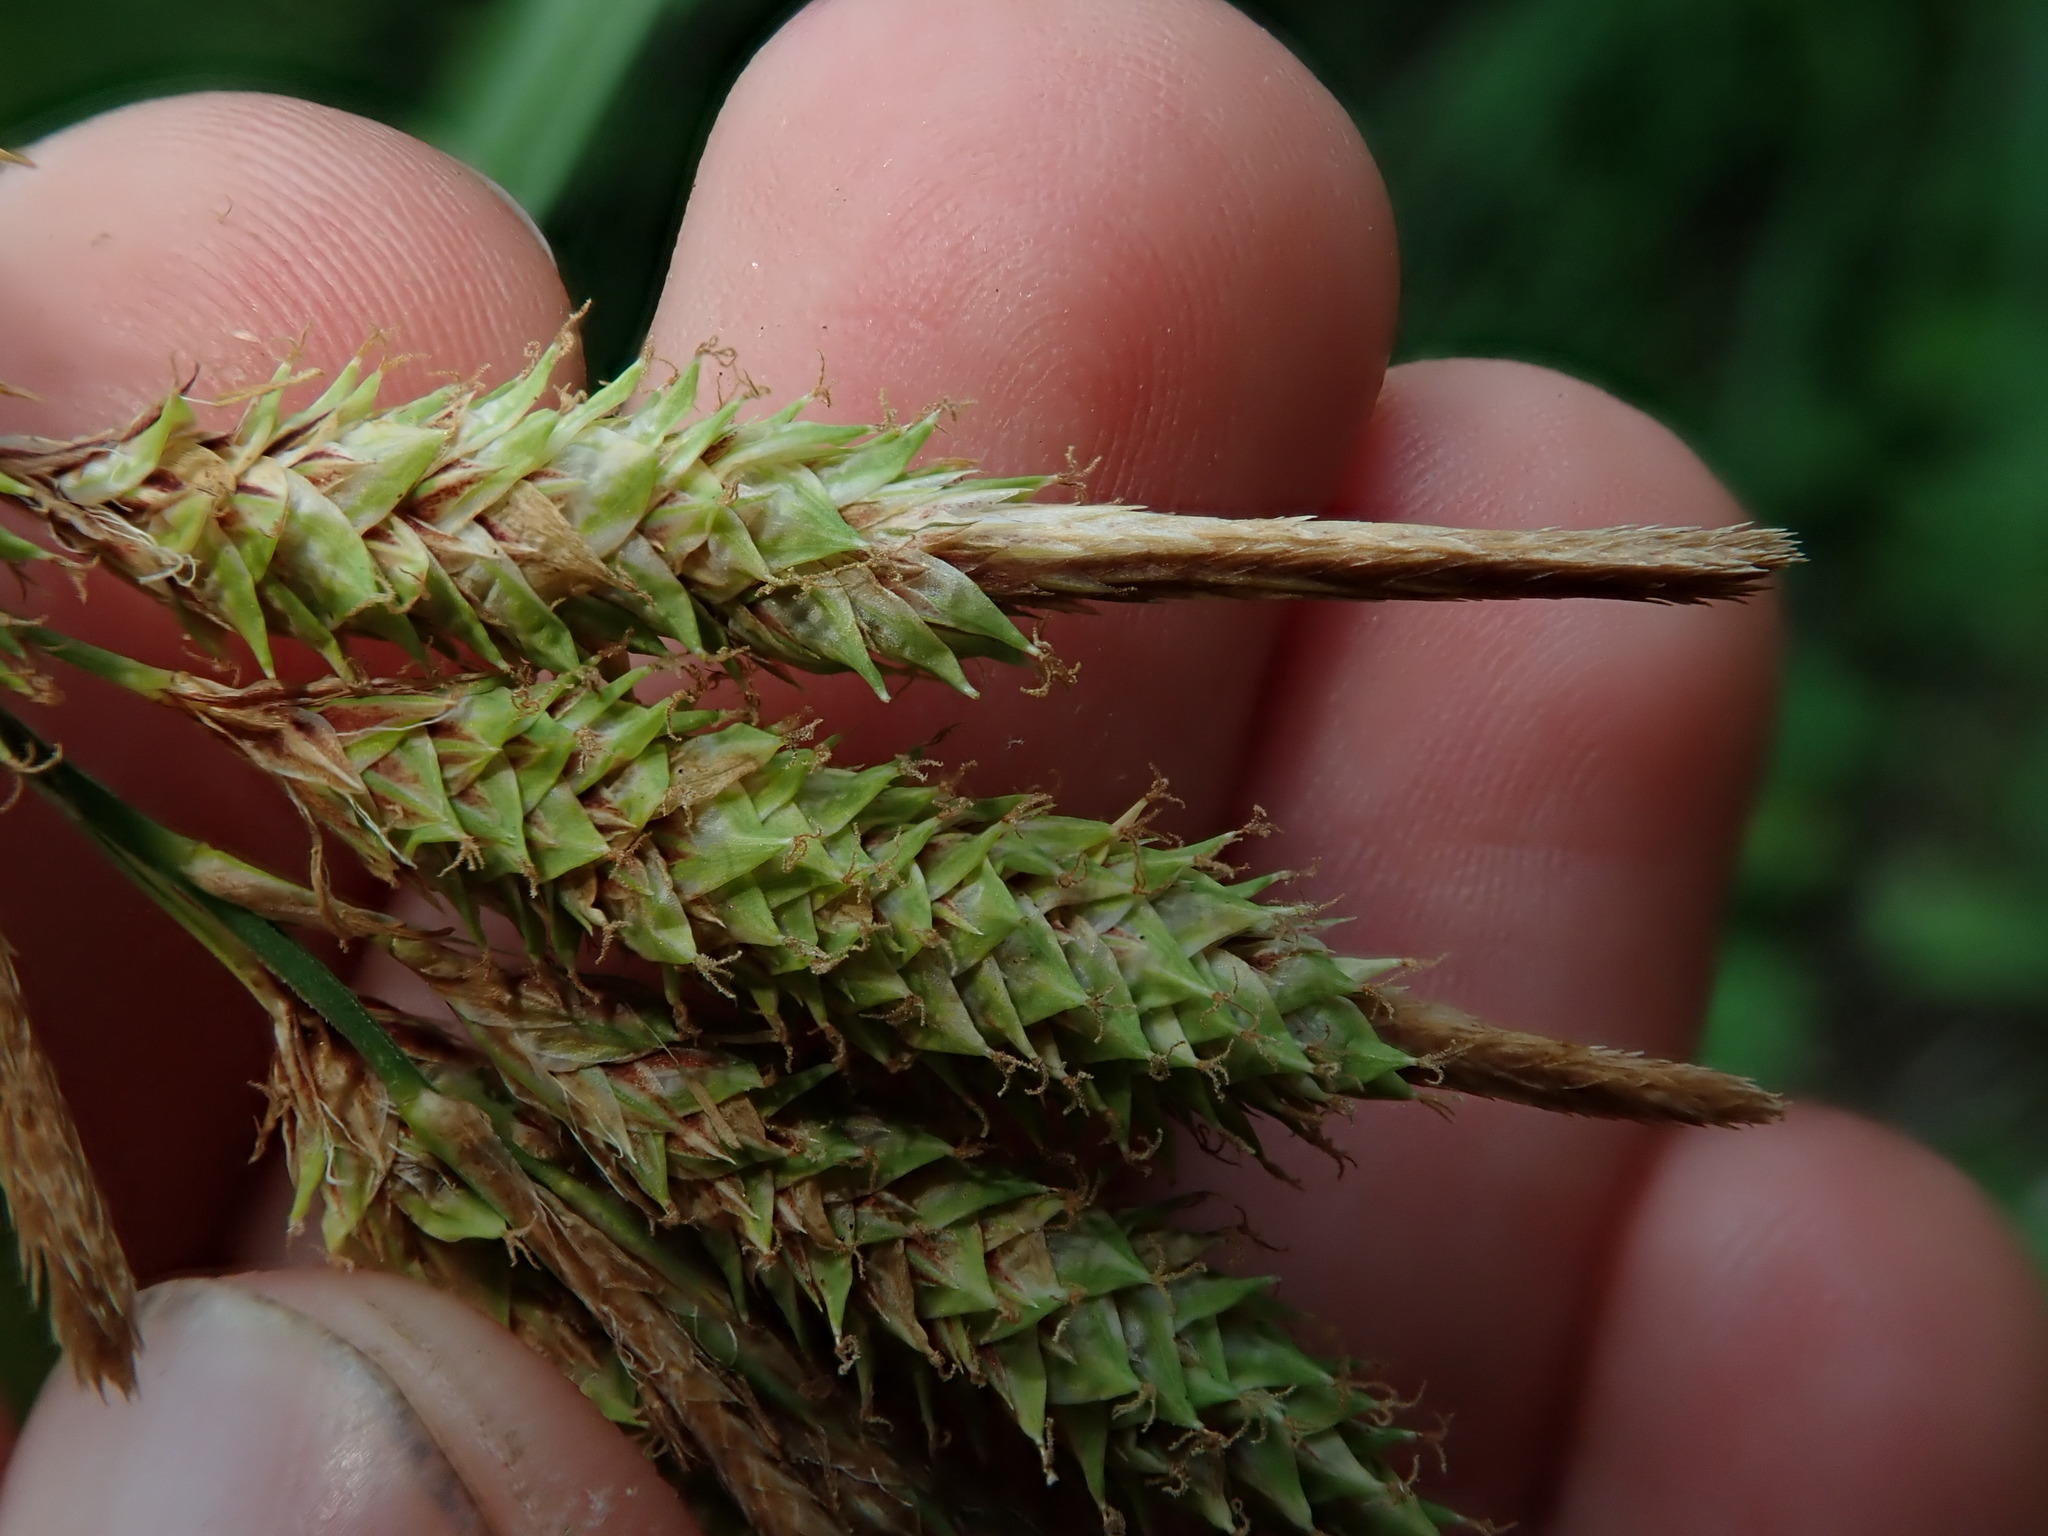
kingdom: Plantae
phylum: Tracheophyta
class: Liliopsida
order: Poales
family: Cyperaceae
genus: Carex
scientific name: Carex mertensii
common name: Mertens' sedge
